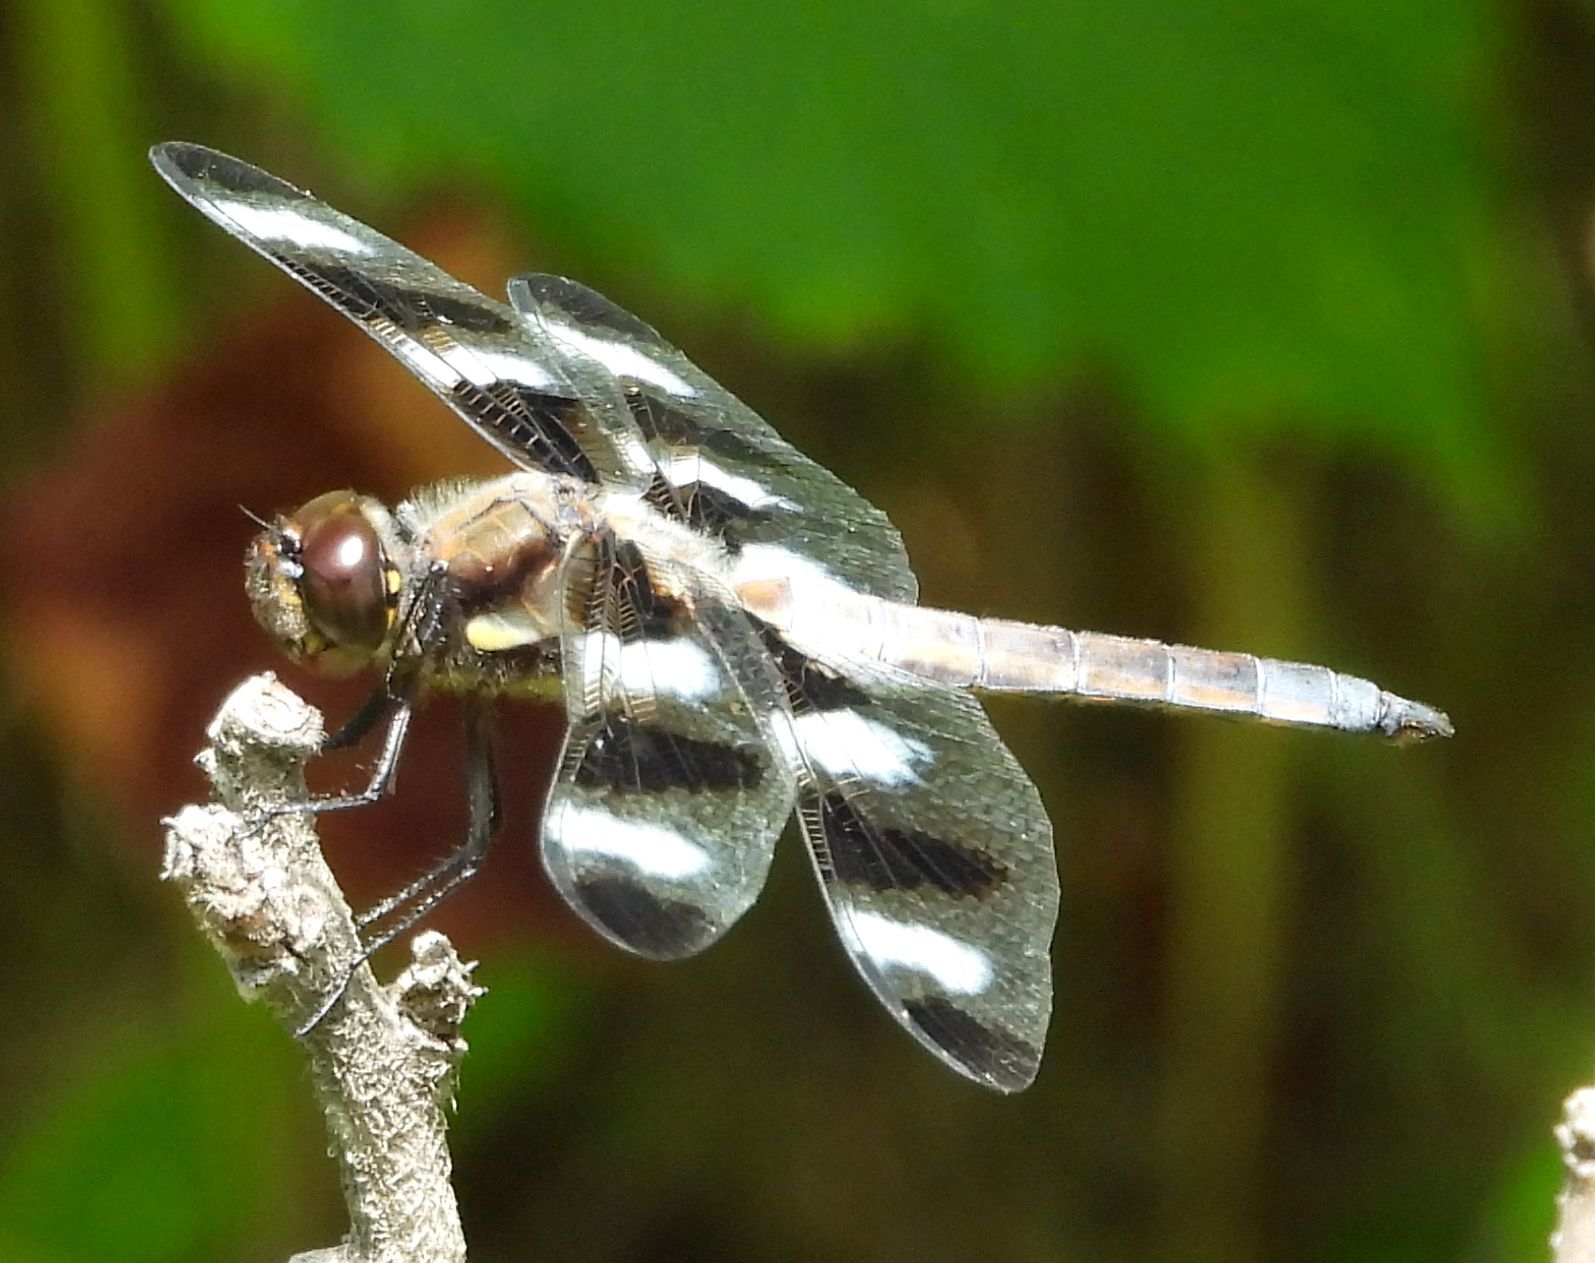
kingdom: Animalia
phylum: Arthropoda
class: Insecta
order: Odonata
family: Libellulidae
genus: Libellula
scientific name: Libellula pulchella
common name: Twelve-spotted skimmer
